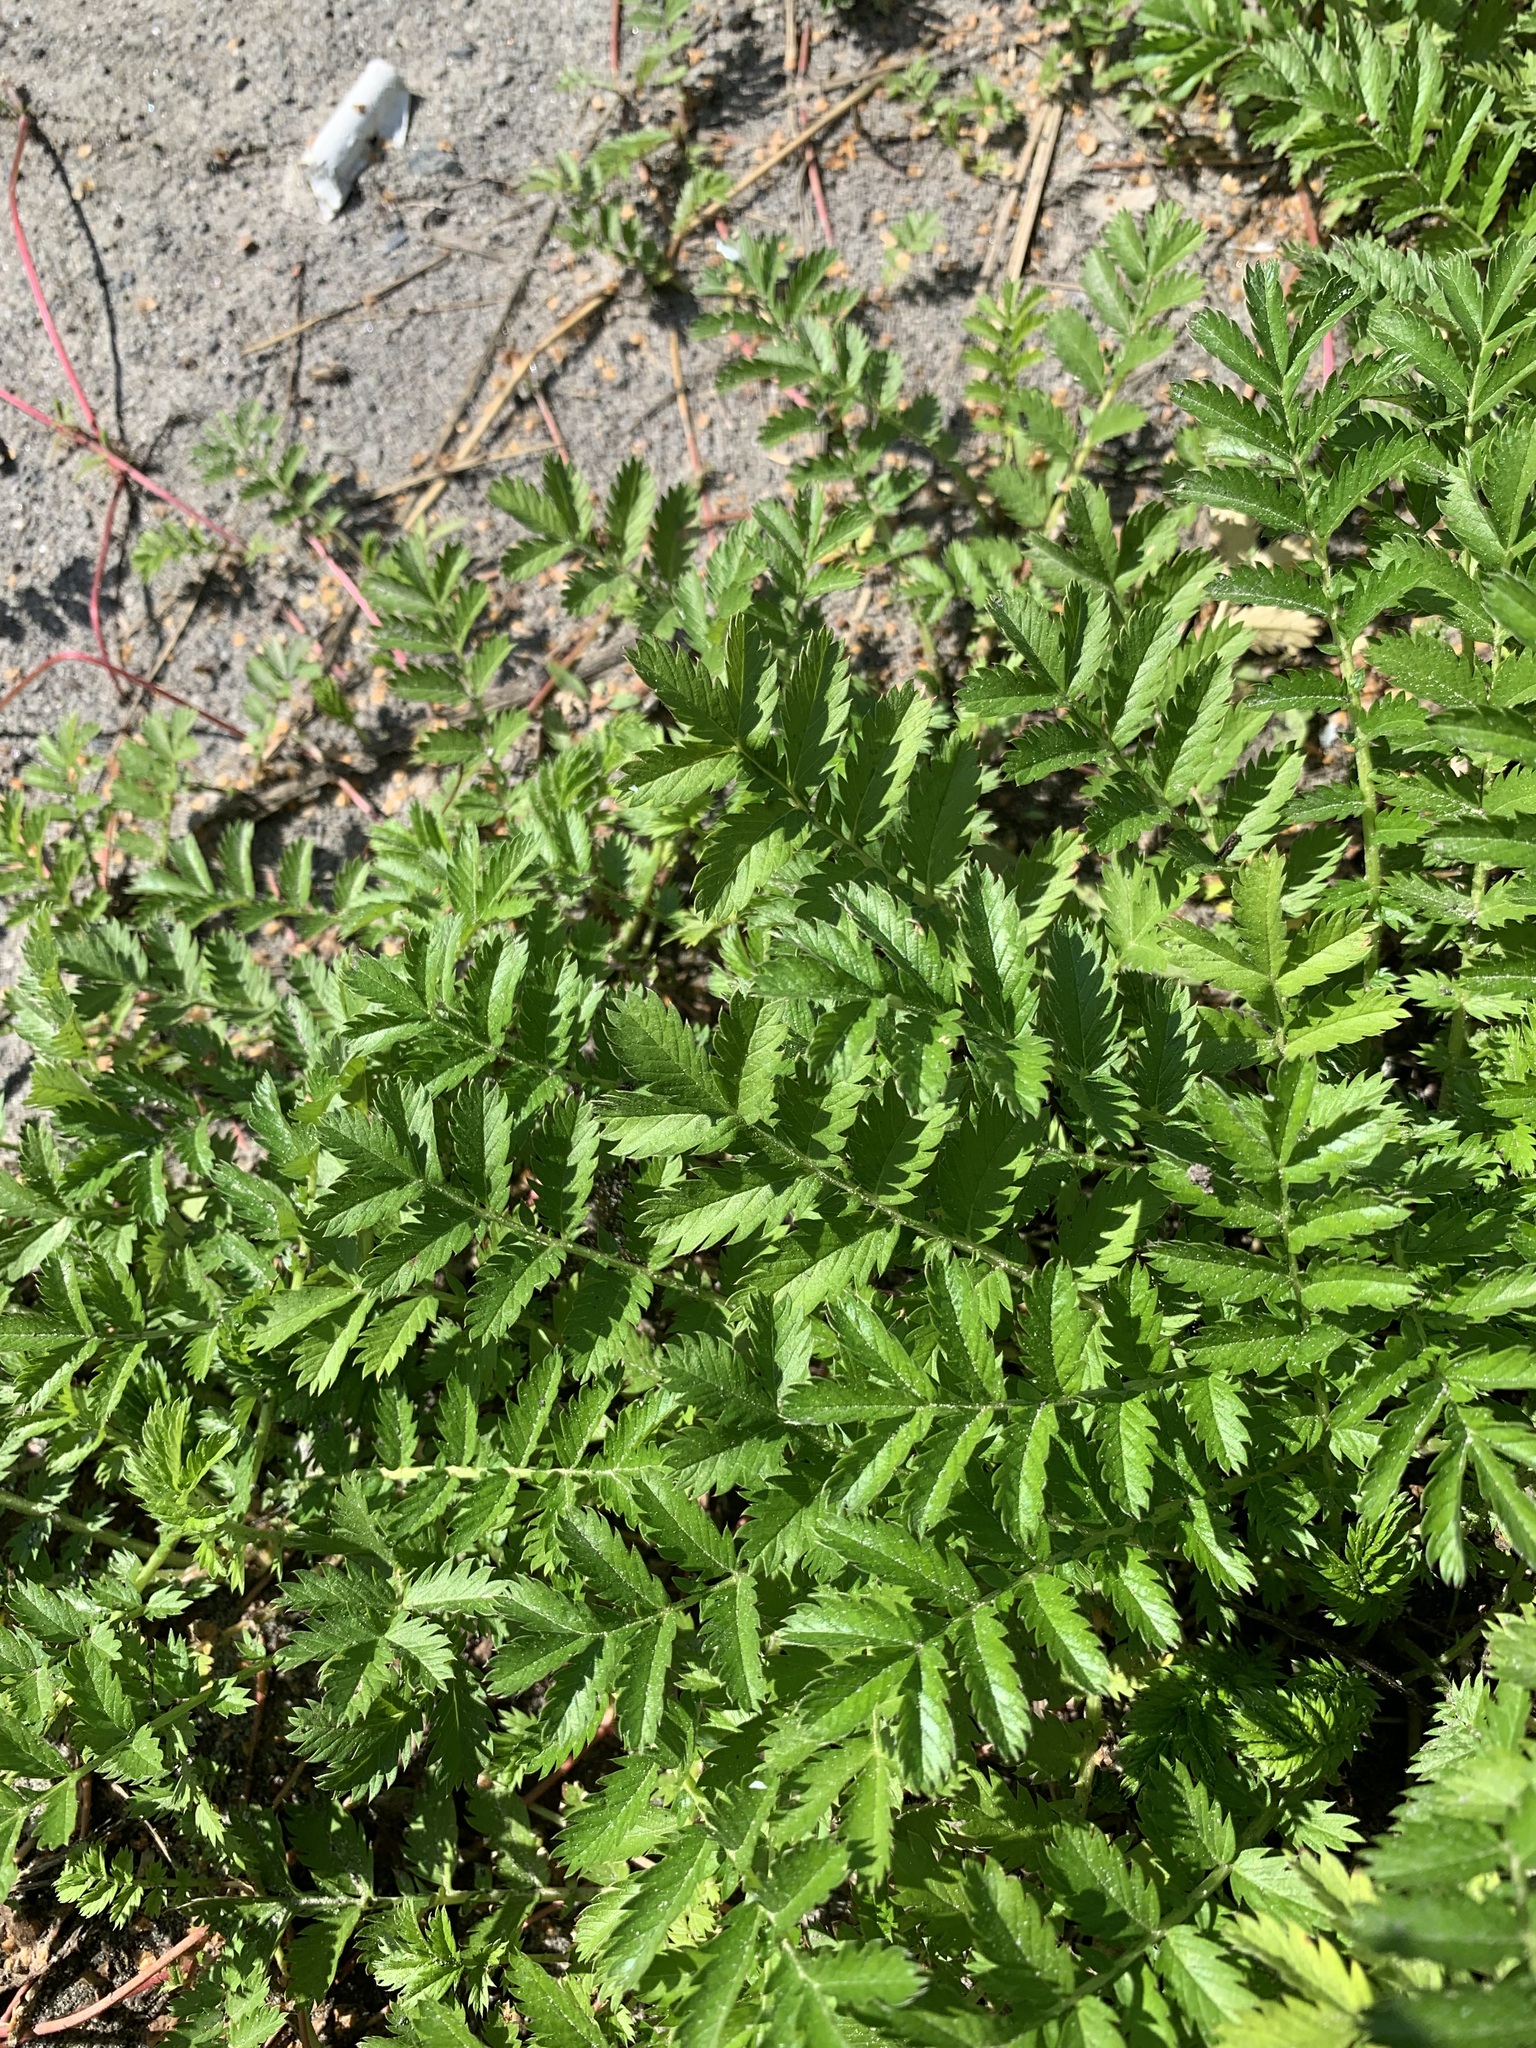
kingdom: Plantae
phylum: Tracheophyta
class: Magnoliopsida
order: Rosales
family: Rosaceae
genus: Argentina
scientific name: Argentina anserina
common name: Common silverweed
